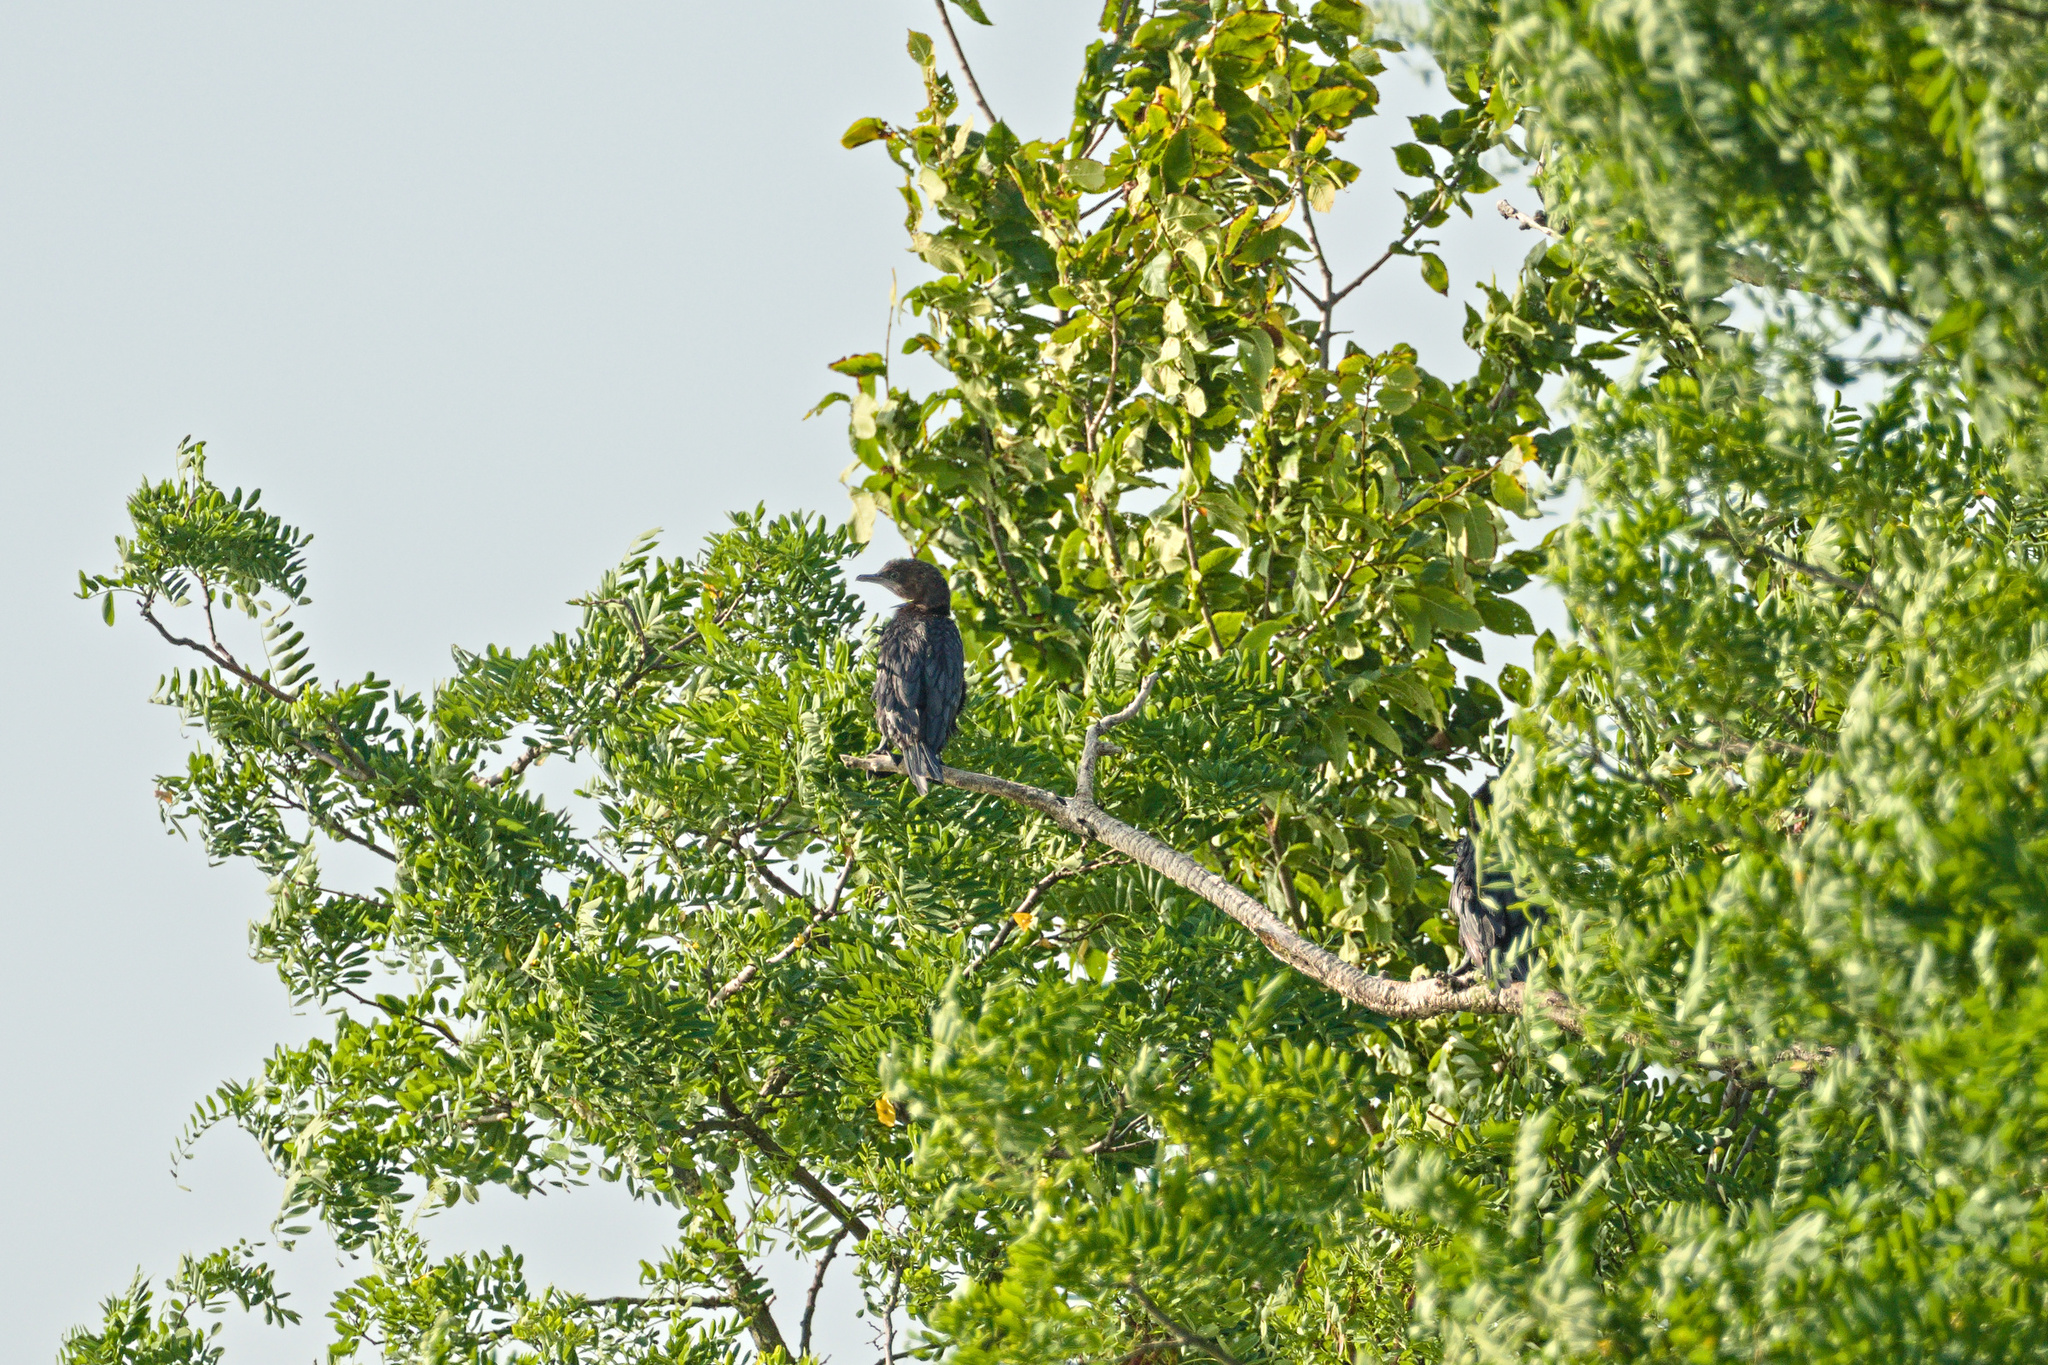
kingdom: Animalia
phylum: Chordata
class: Aves
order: Suliformes
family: Phalacrocoracidae
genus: Microcarbo
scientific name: Microcarbo pygmaeus
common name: Pygmy cormorant
